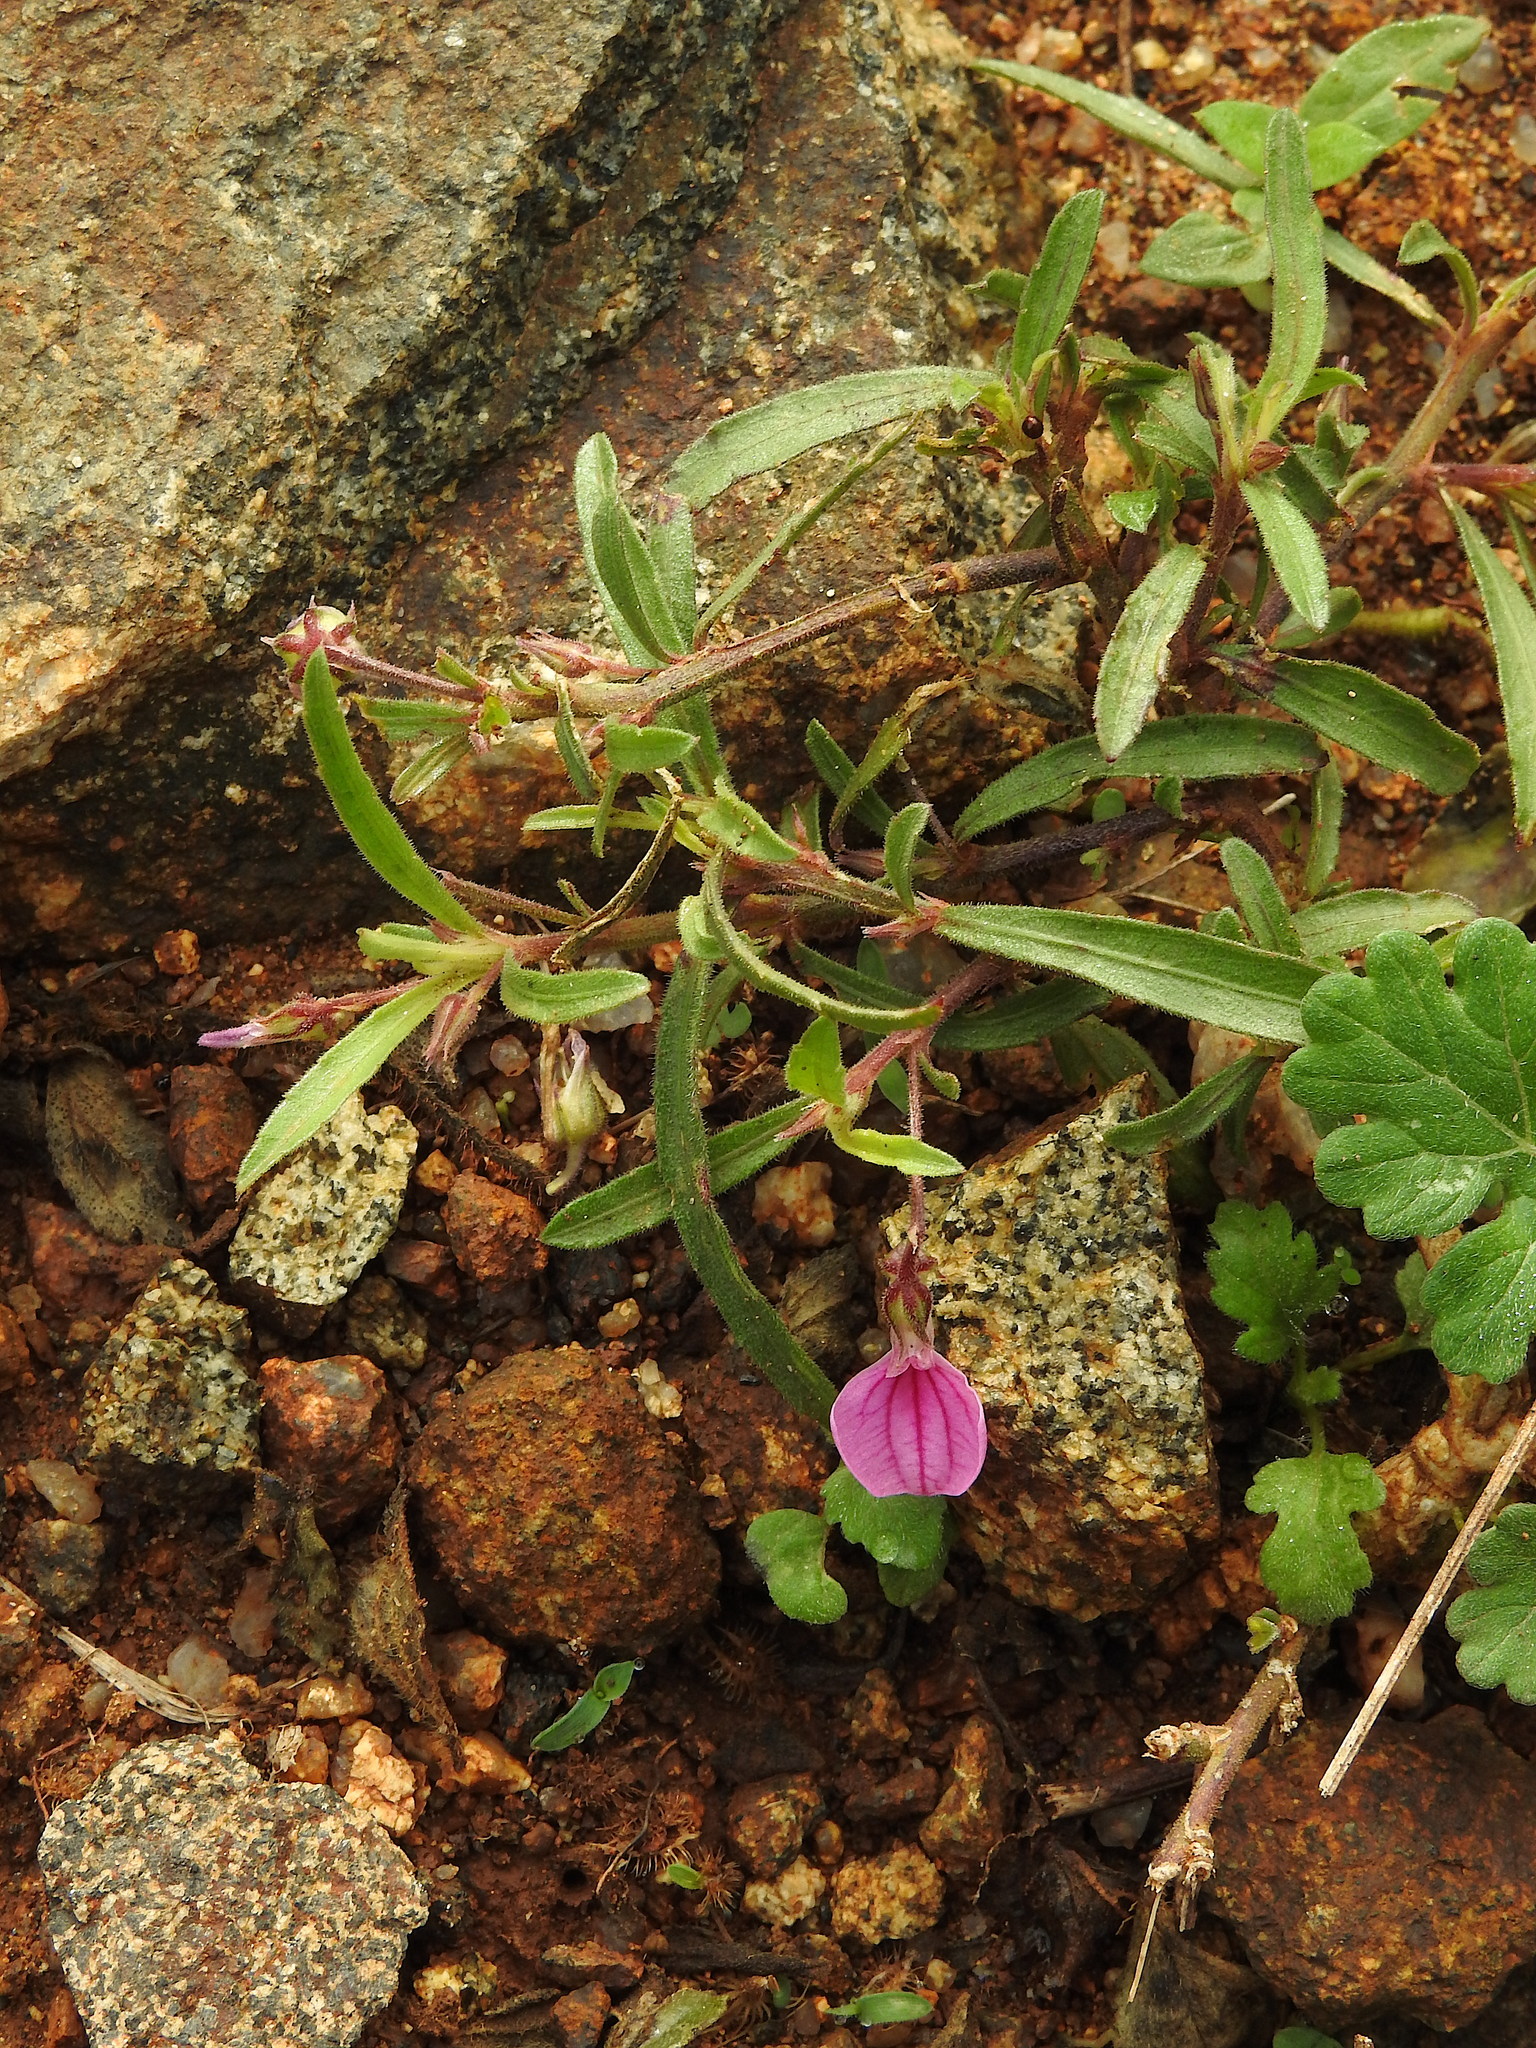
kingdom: Plantae
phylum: Tracheophyta
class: Magnoliopsida
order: Malpighiales
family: Violaceae
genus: Pigea
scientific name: Pigea enneasperma
